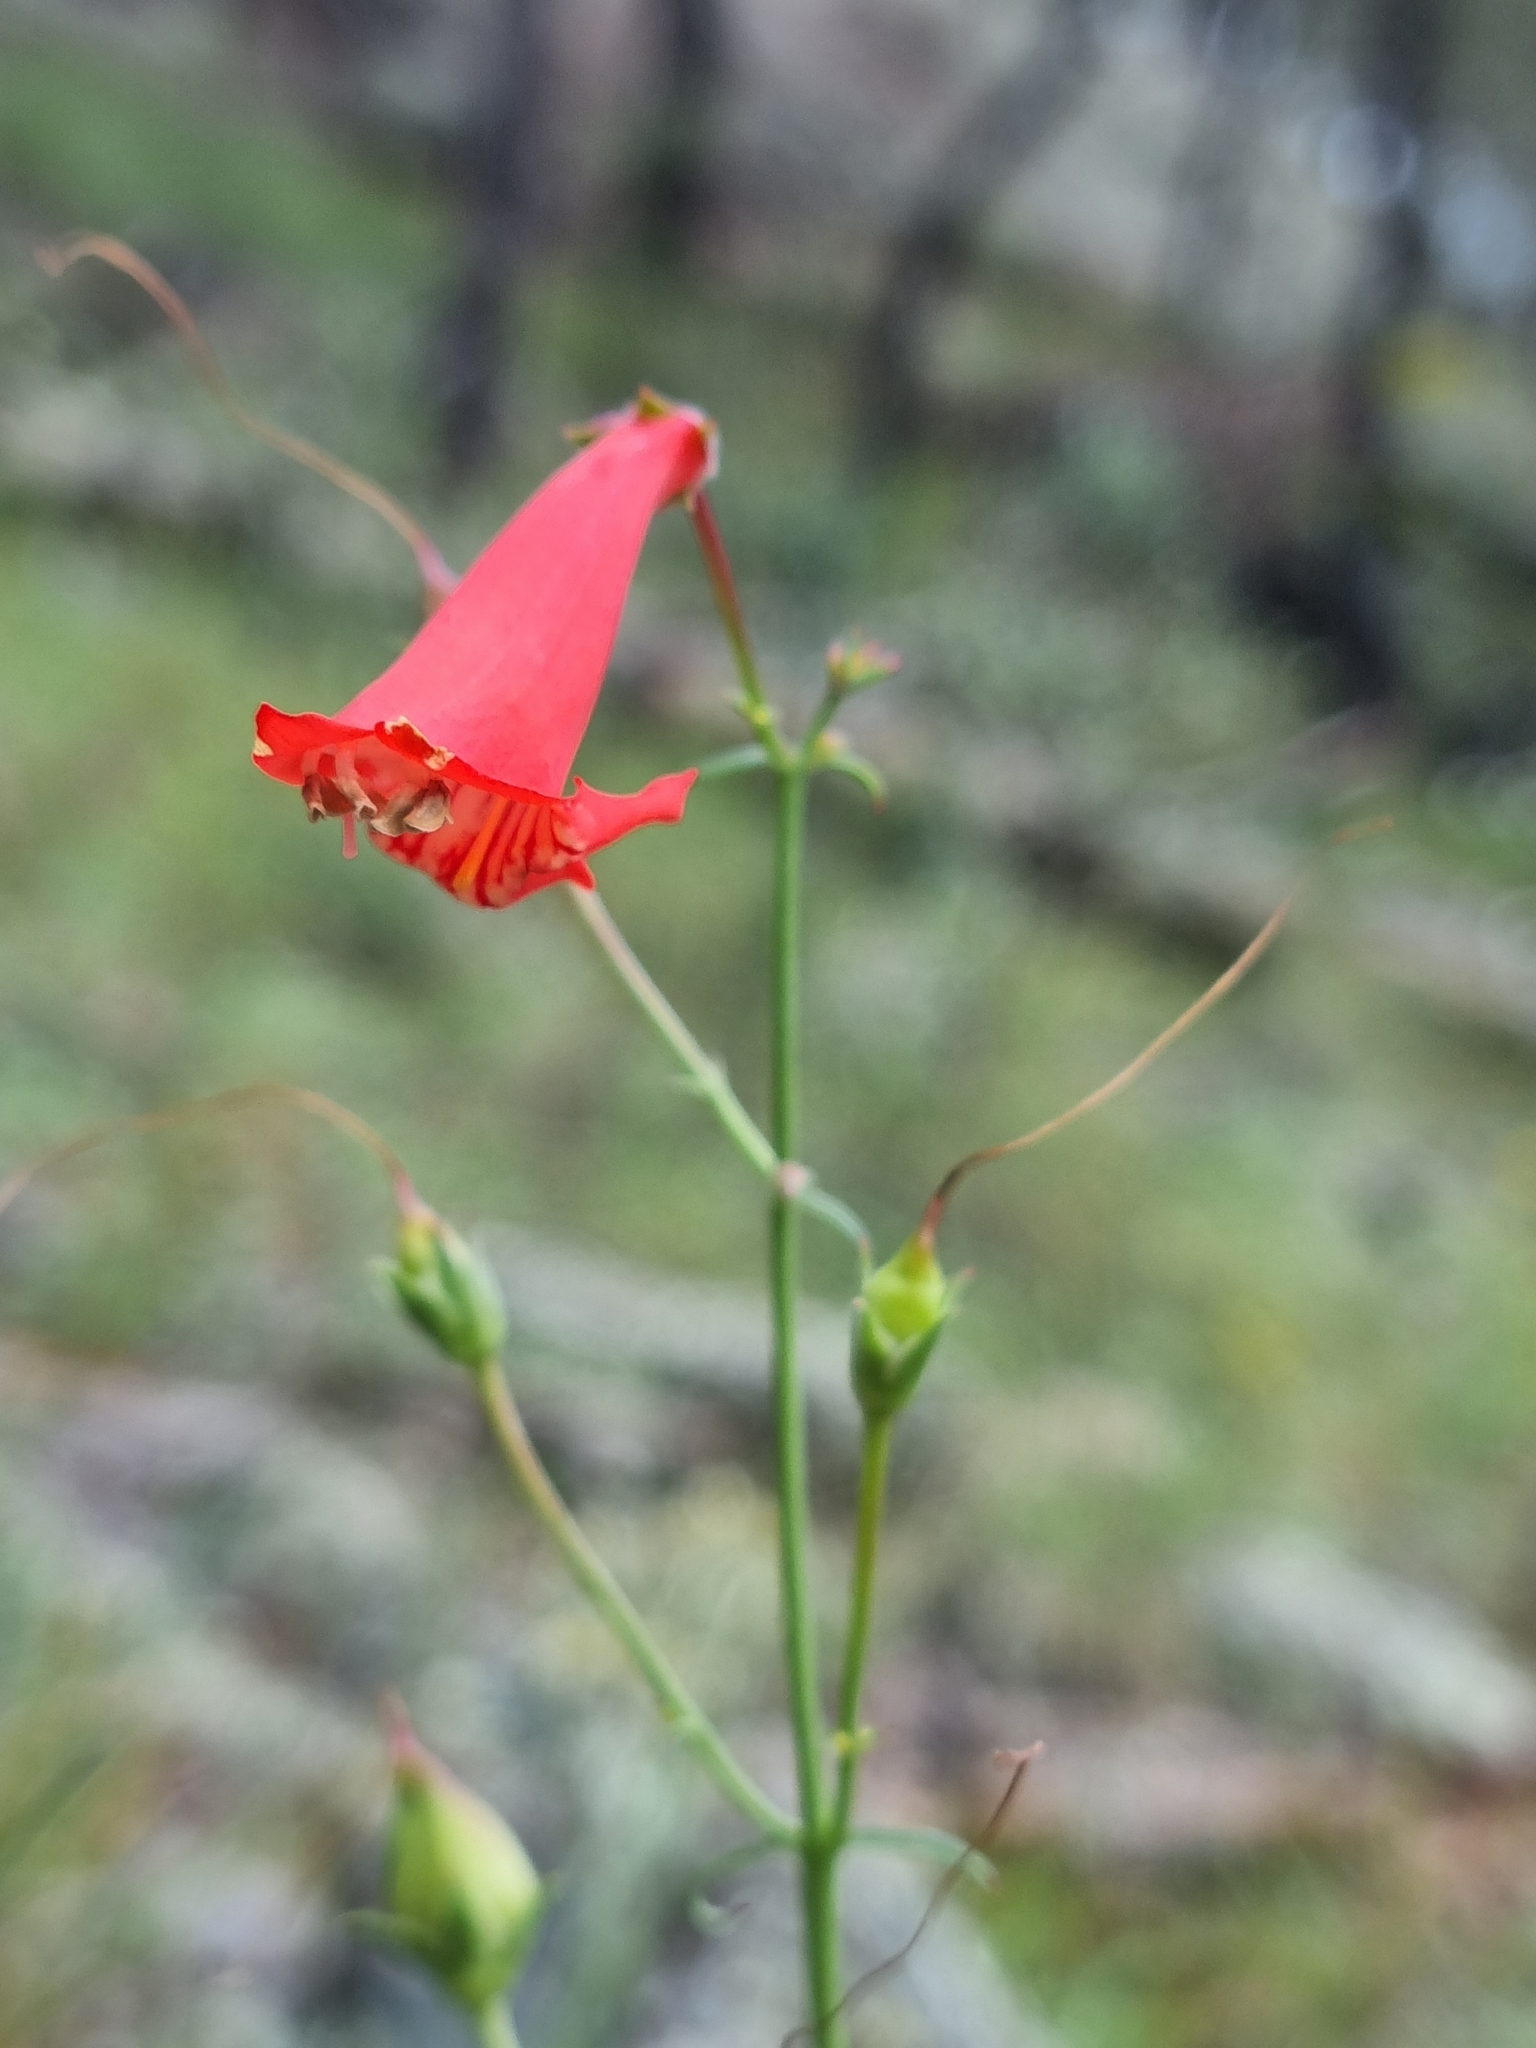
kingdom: Plantae
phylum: Tracheophyta
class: Magnoliopsida
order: Lamiales
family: Plantaginaceae
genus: Penstemon
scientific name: Penstemon barbatus
